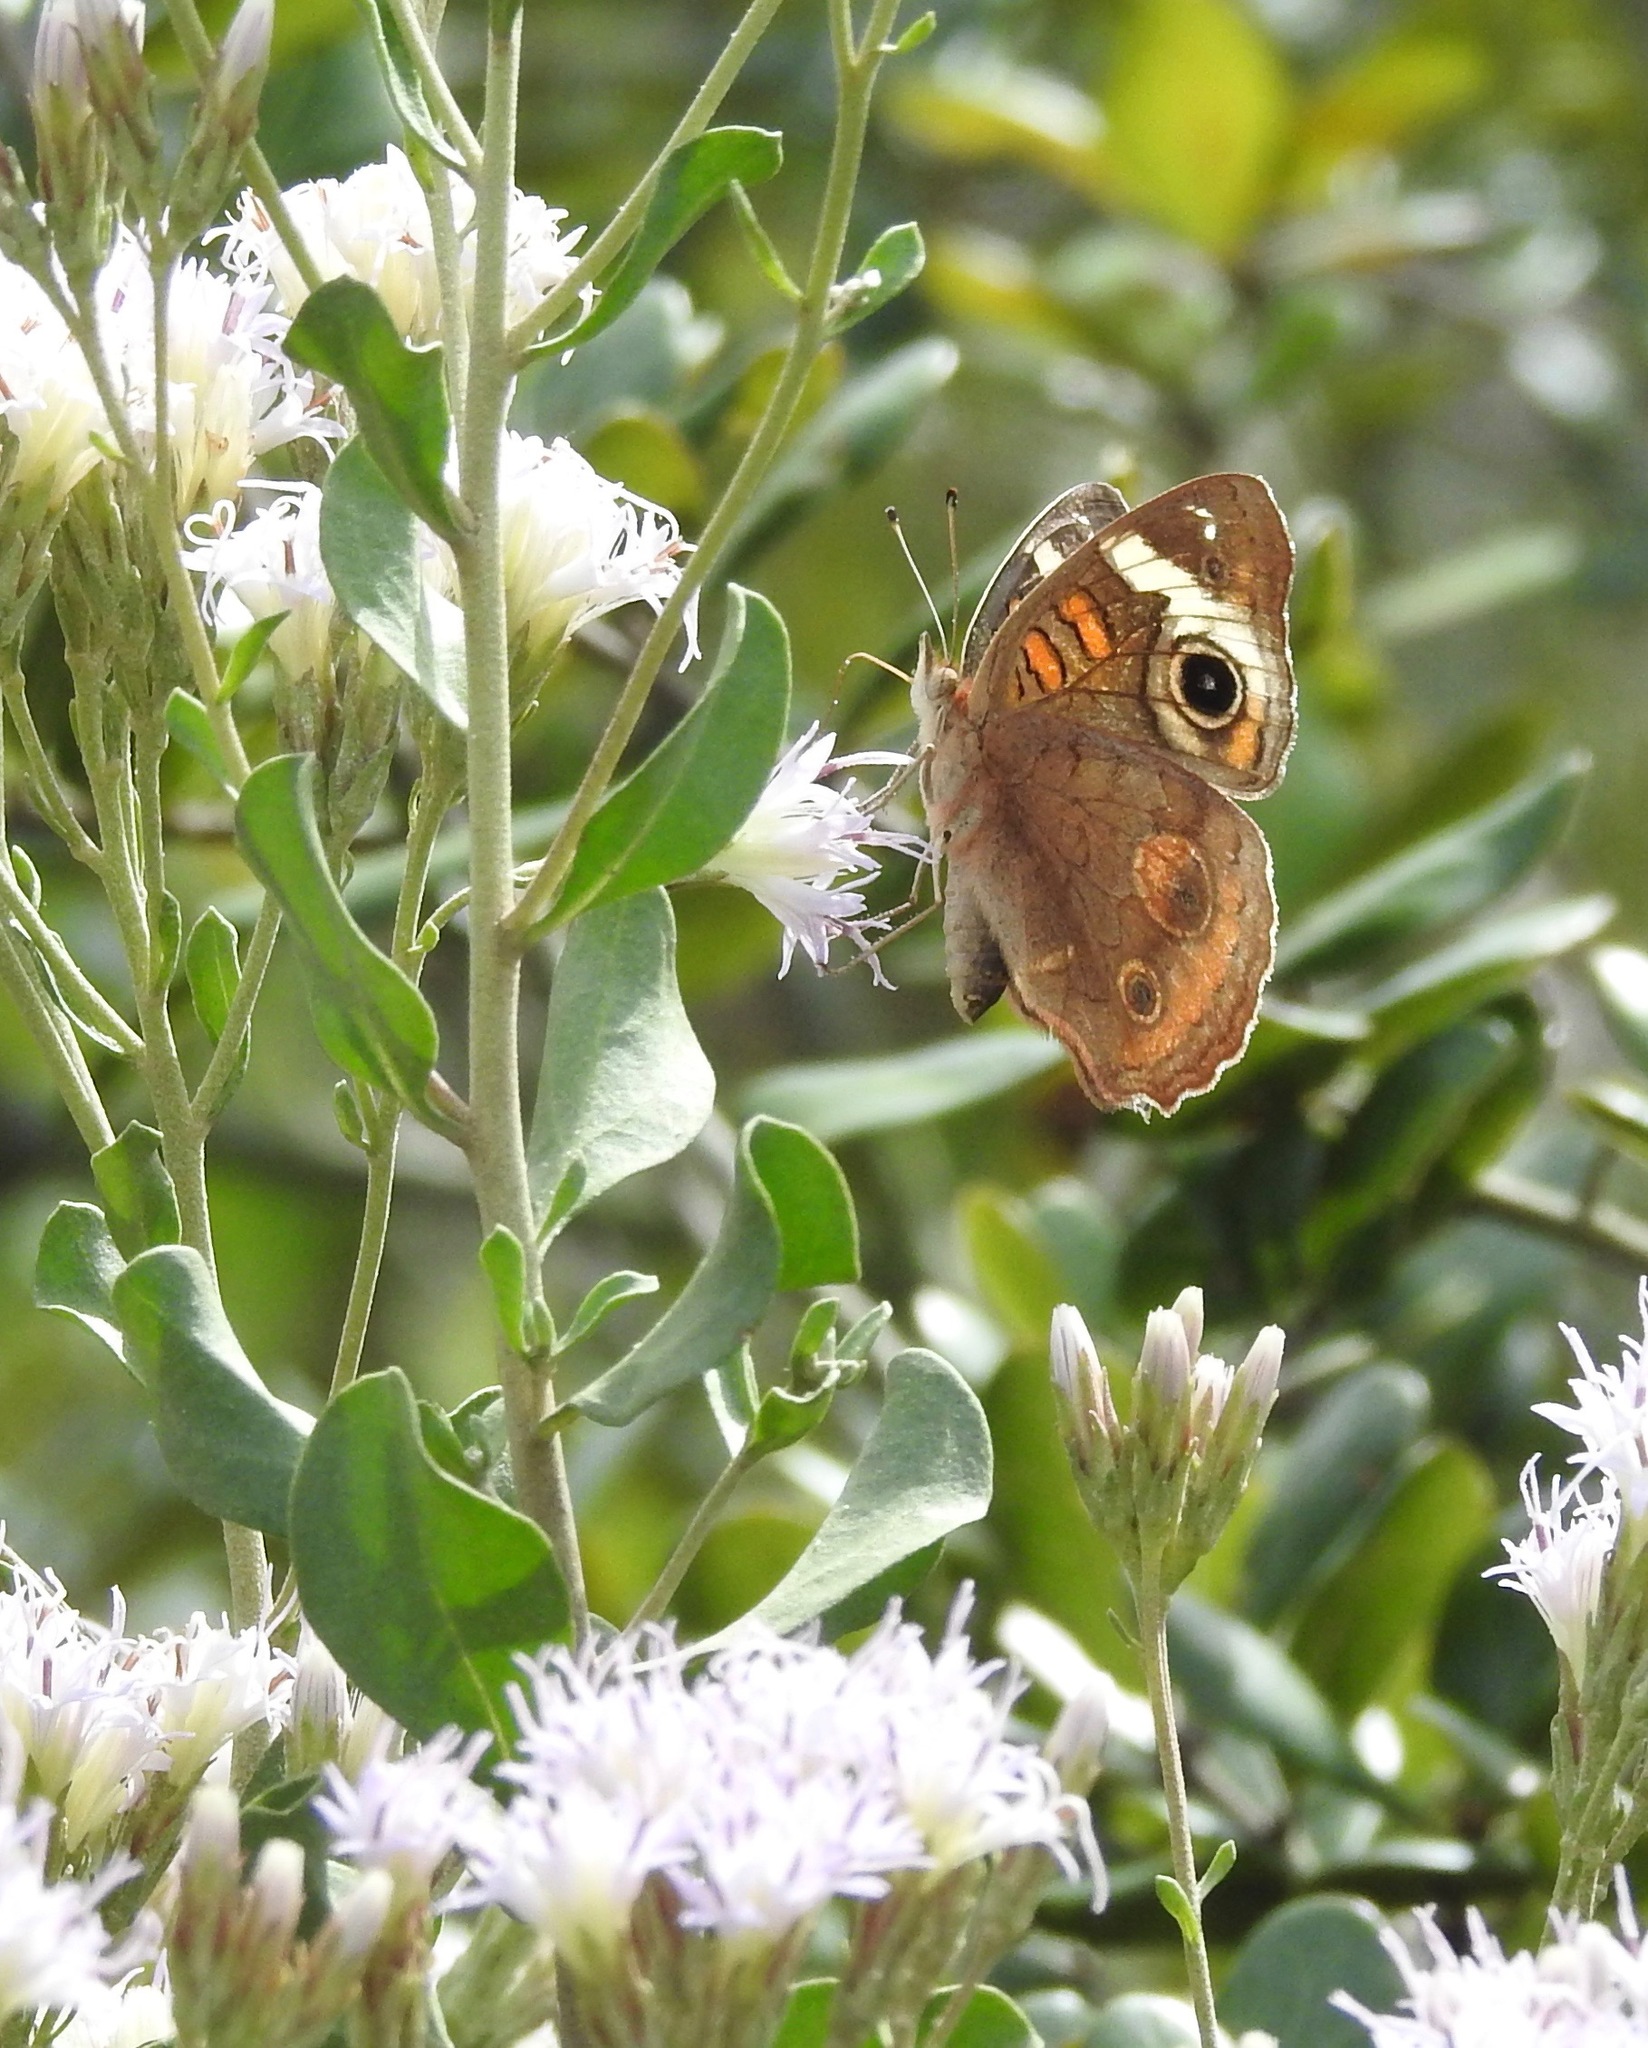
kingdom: Animalia
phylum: Arthropoda
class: Insecta
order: Lepidoptera
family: Nymphalidae
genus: Junonia
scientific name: Junonia coenia
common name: Common buckeye
